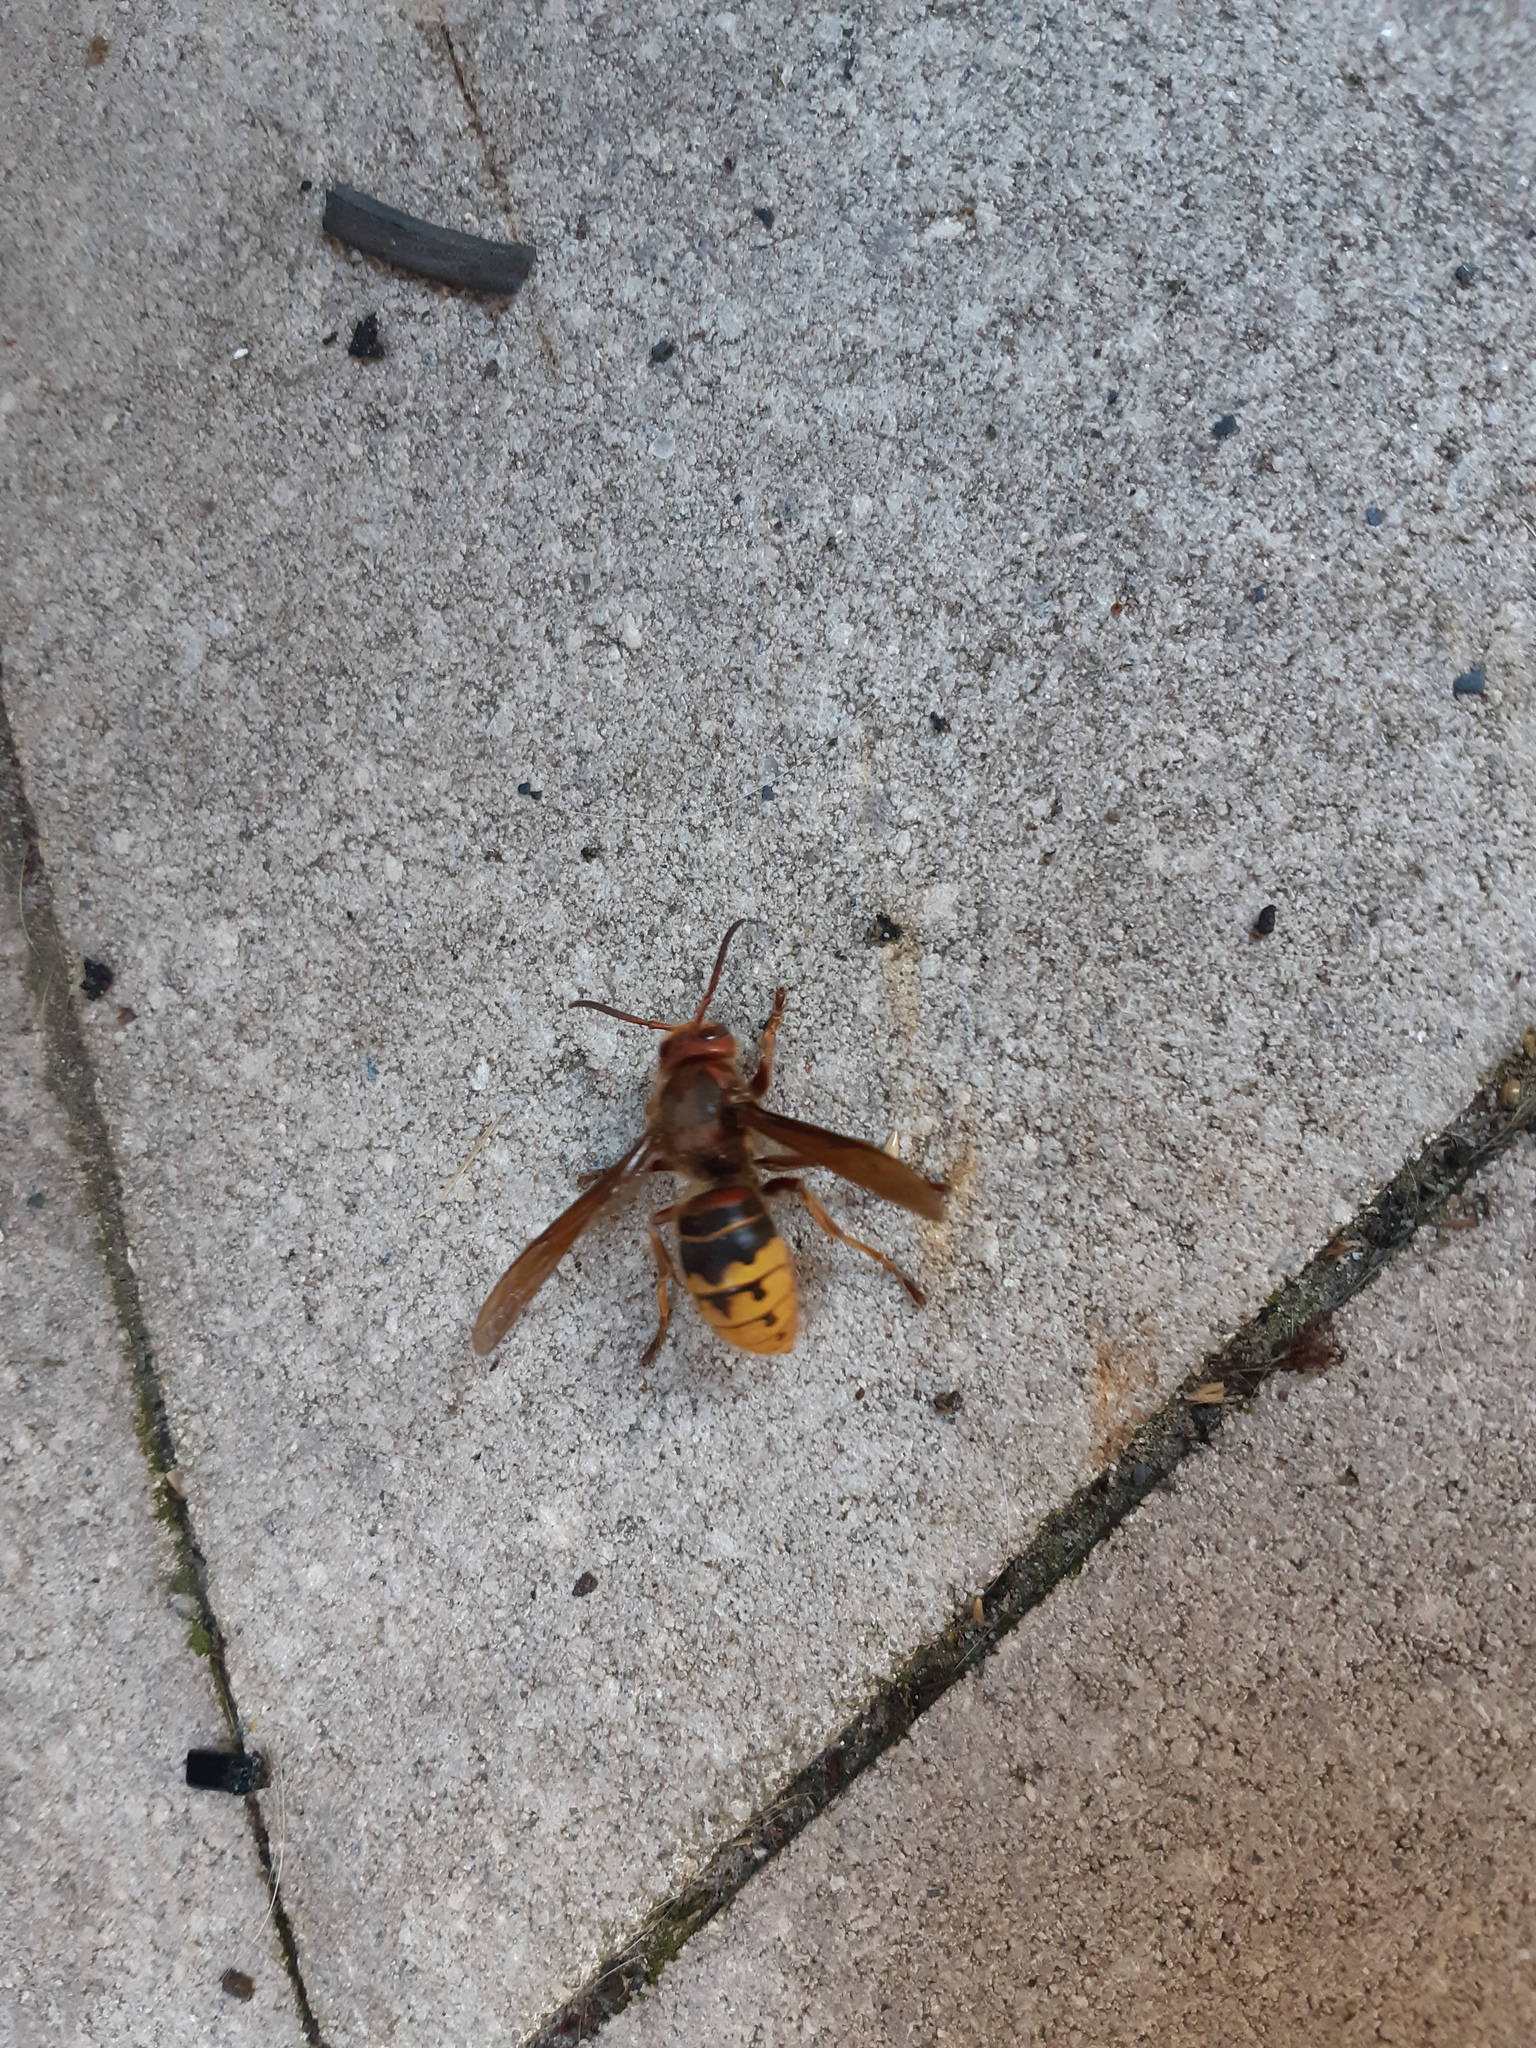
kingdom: Animalia
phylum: Arthropoda
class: Insecta
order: Hymenoptera
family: Vespidae
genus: Vespa
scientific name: Vespa crabro
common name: Hornet
